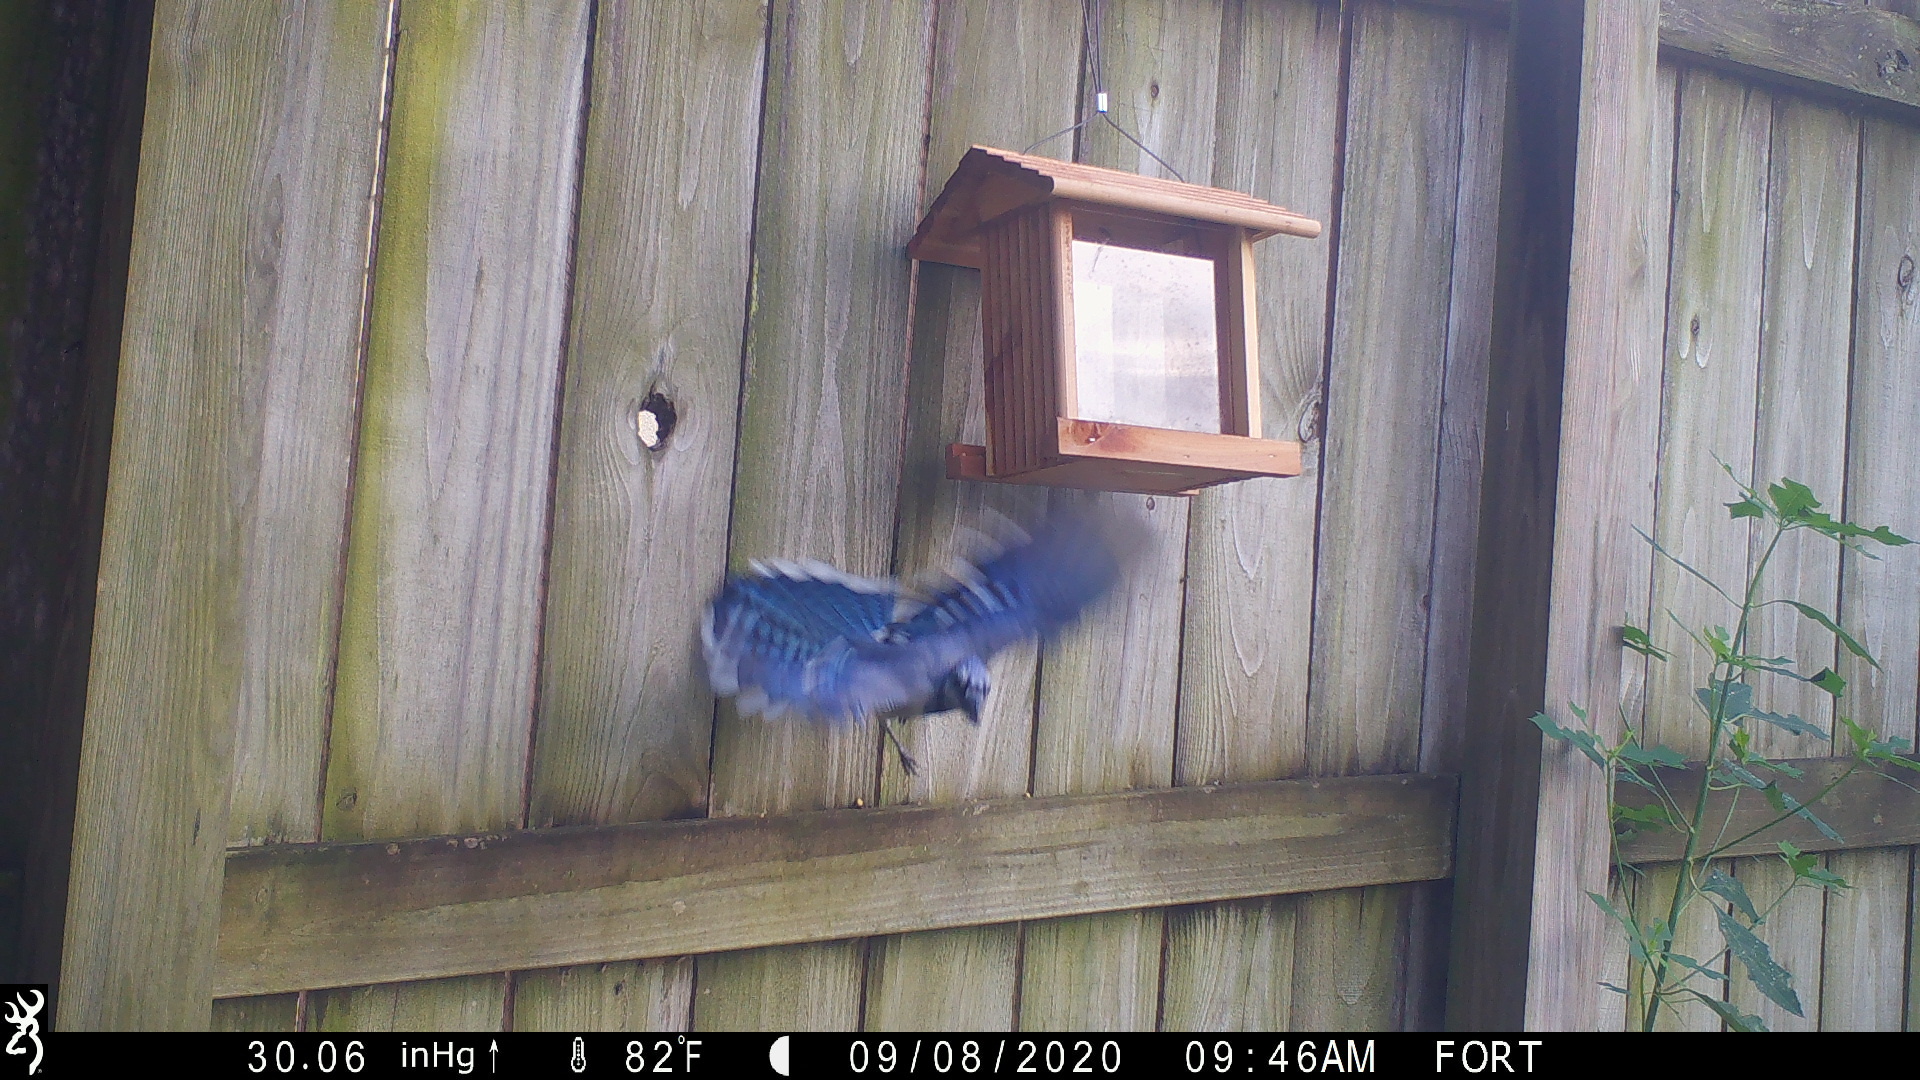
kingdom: Animalia
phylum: Chordata
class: Aves
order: Passeriformes
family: Corvidae
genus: Cyanocitta
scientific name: Cyanocitta cristata
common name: Blue jay
